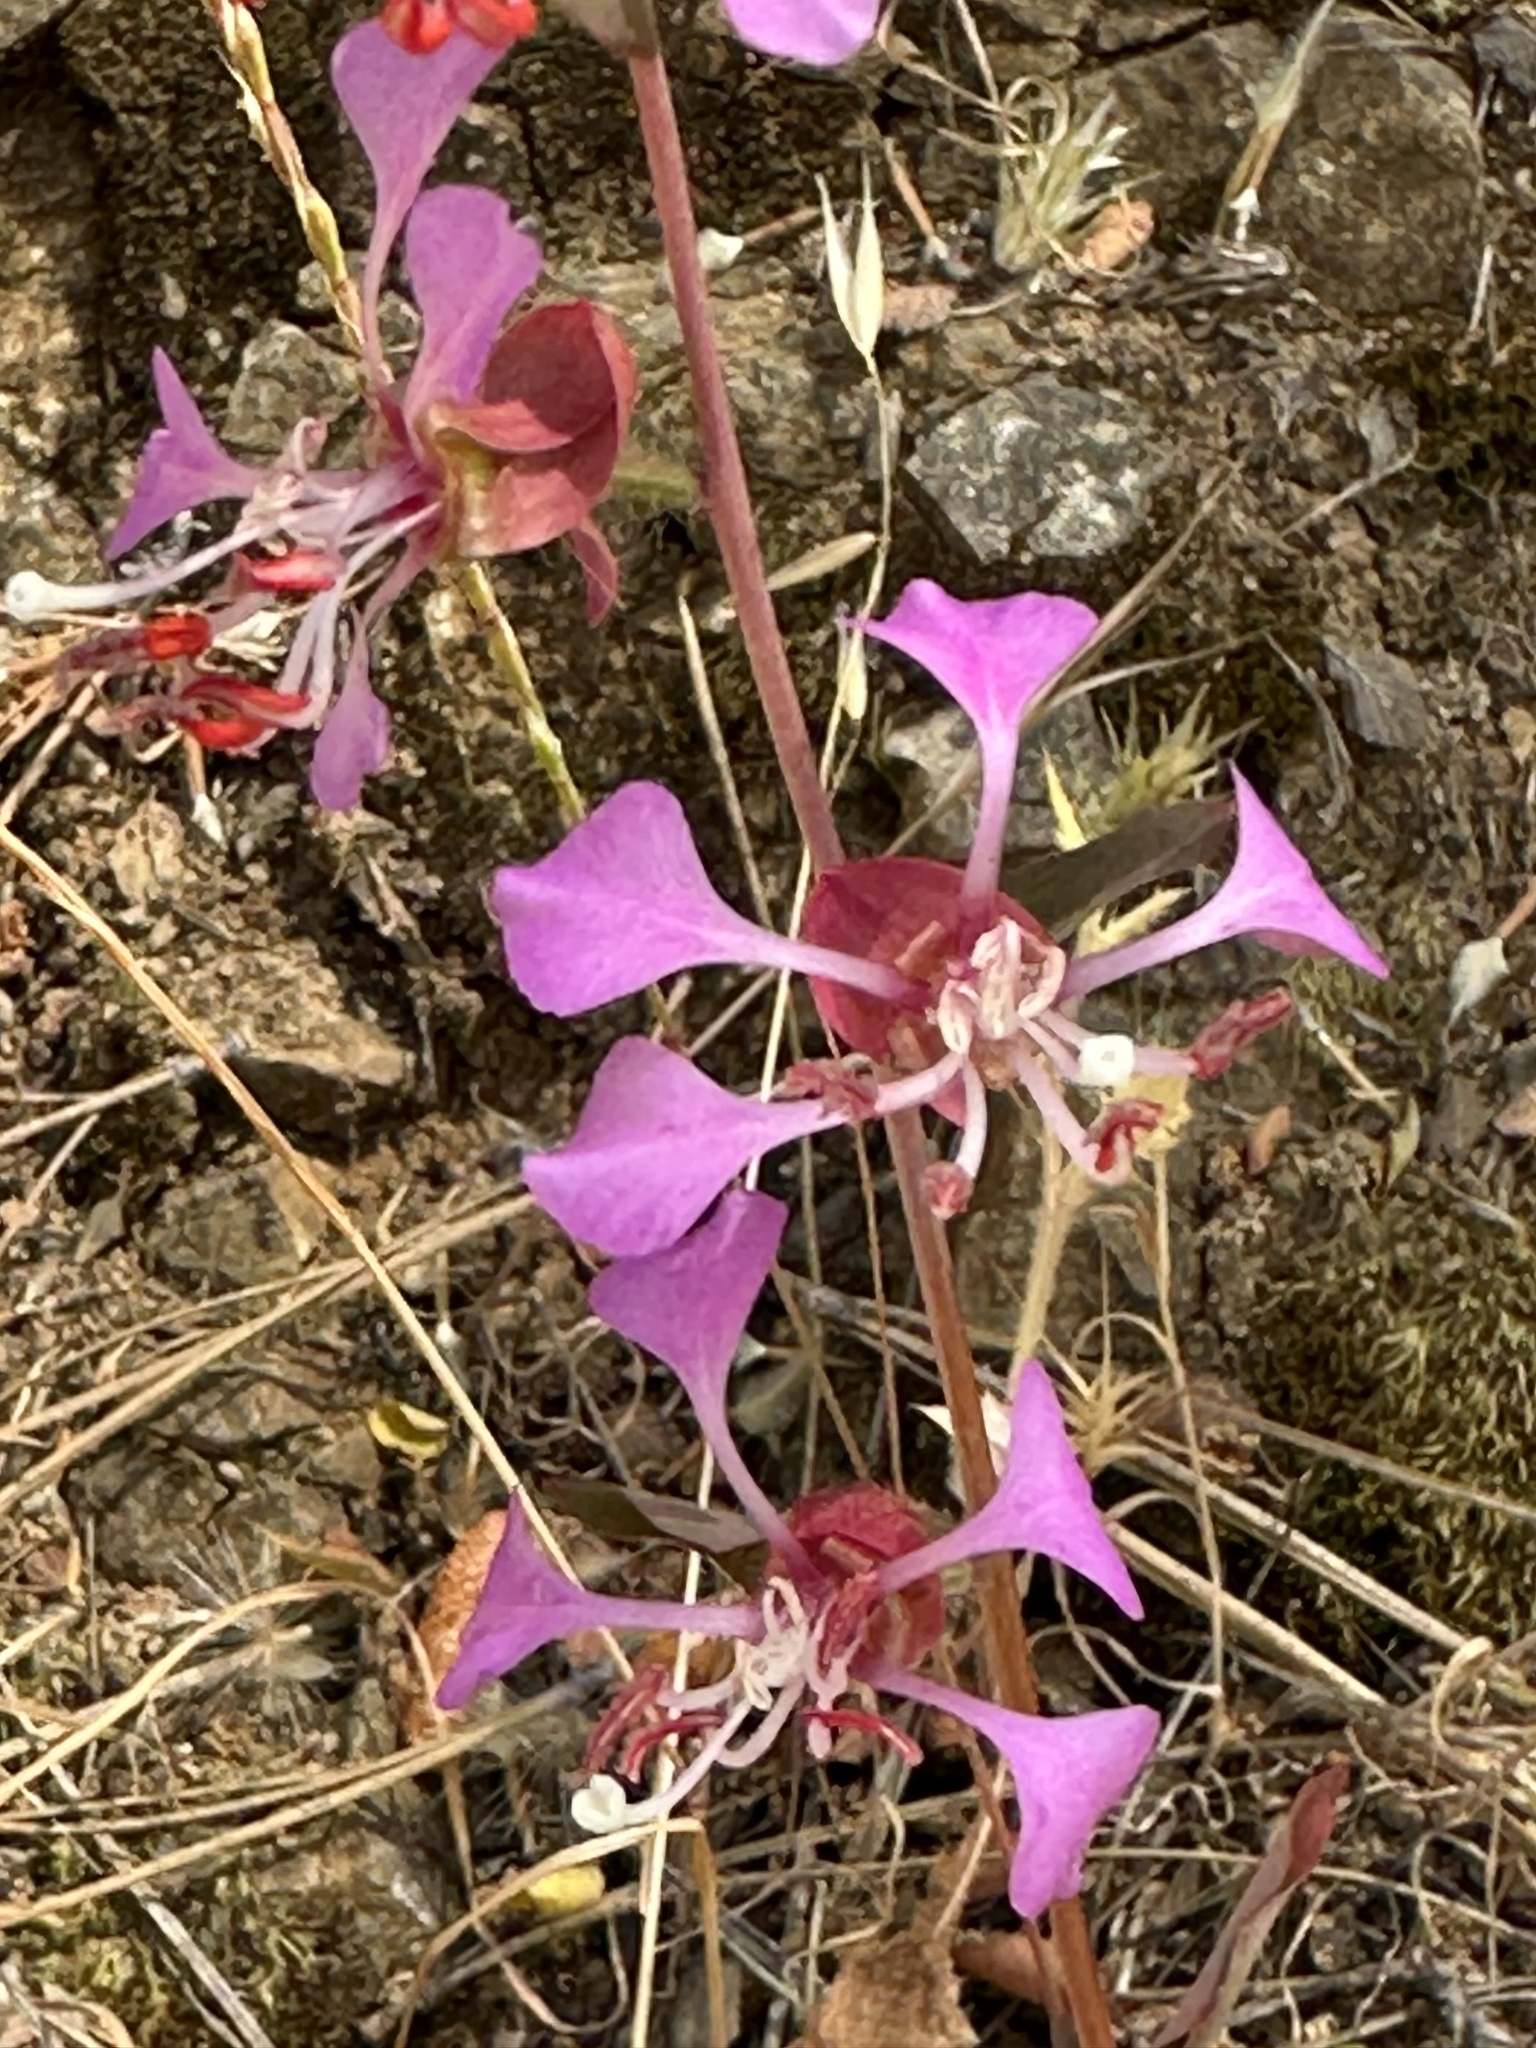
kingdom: Plantae
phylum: Tracheophyta
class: Magnoliopsida
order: Myrtales
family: Onagraceae
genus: Clarkia
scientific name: Clarkia unguiculata
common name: Clarkia
